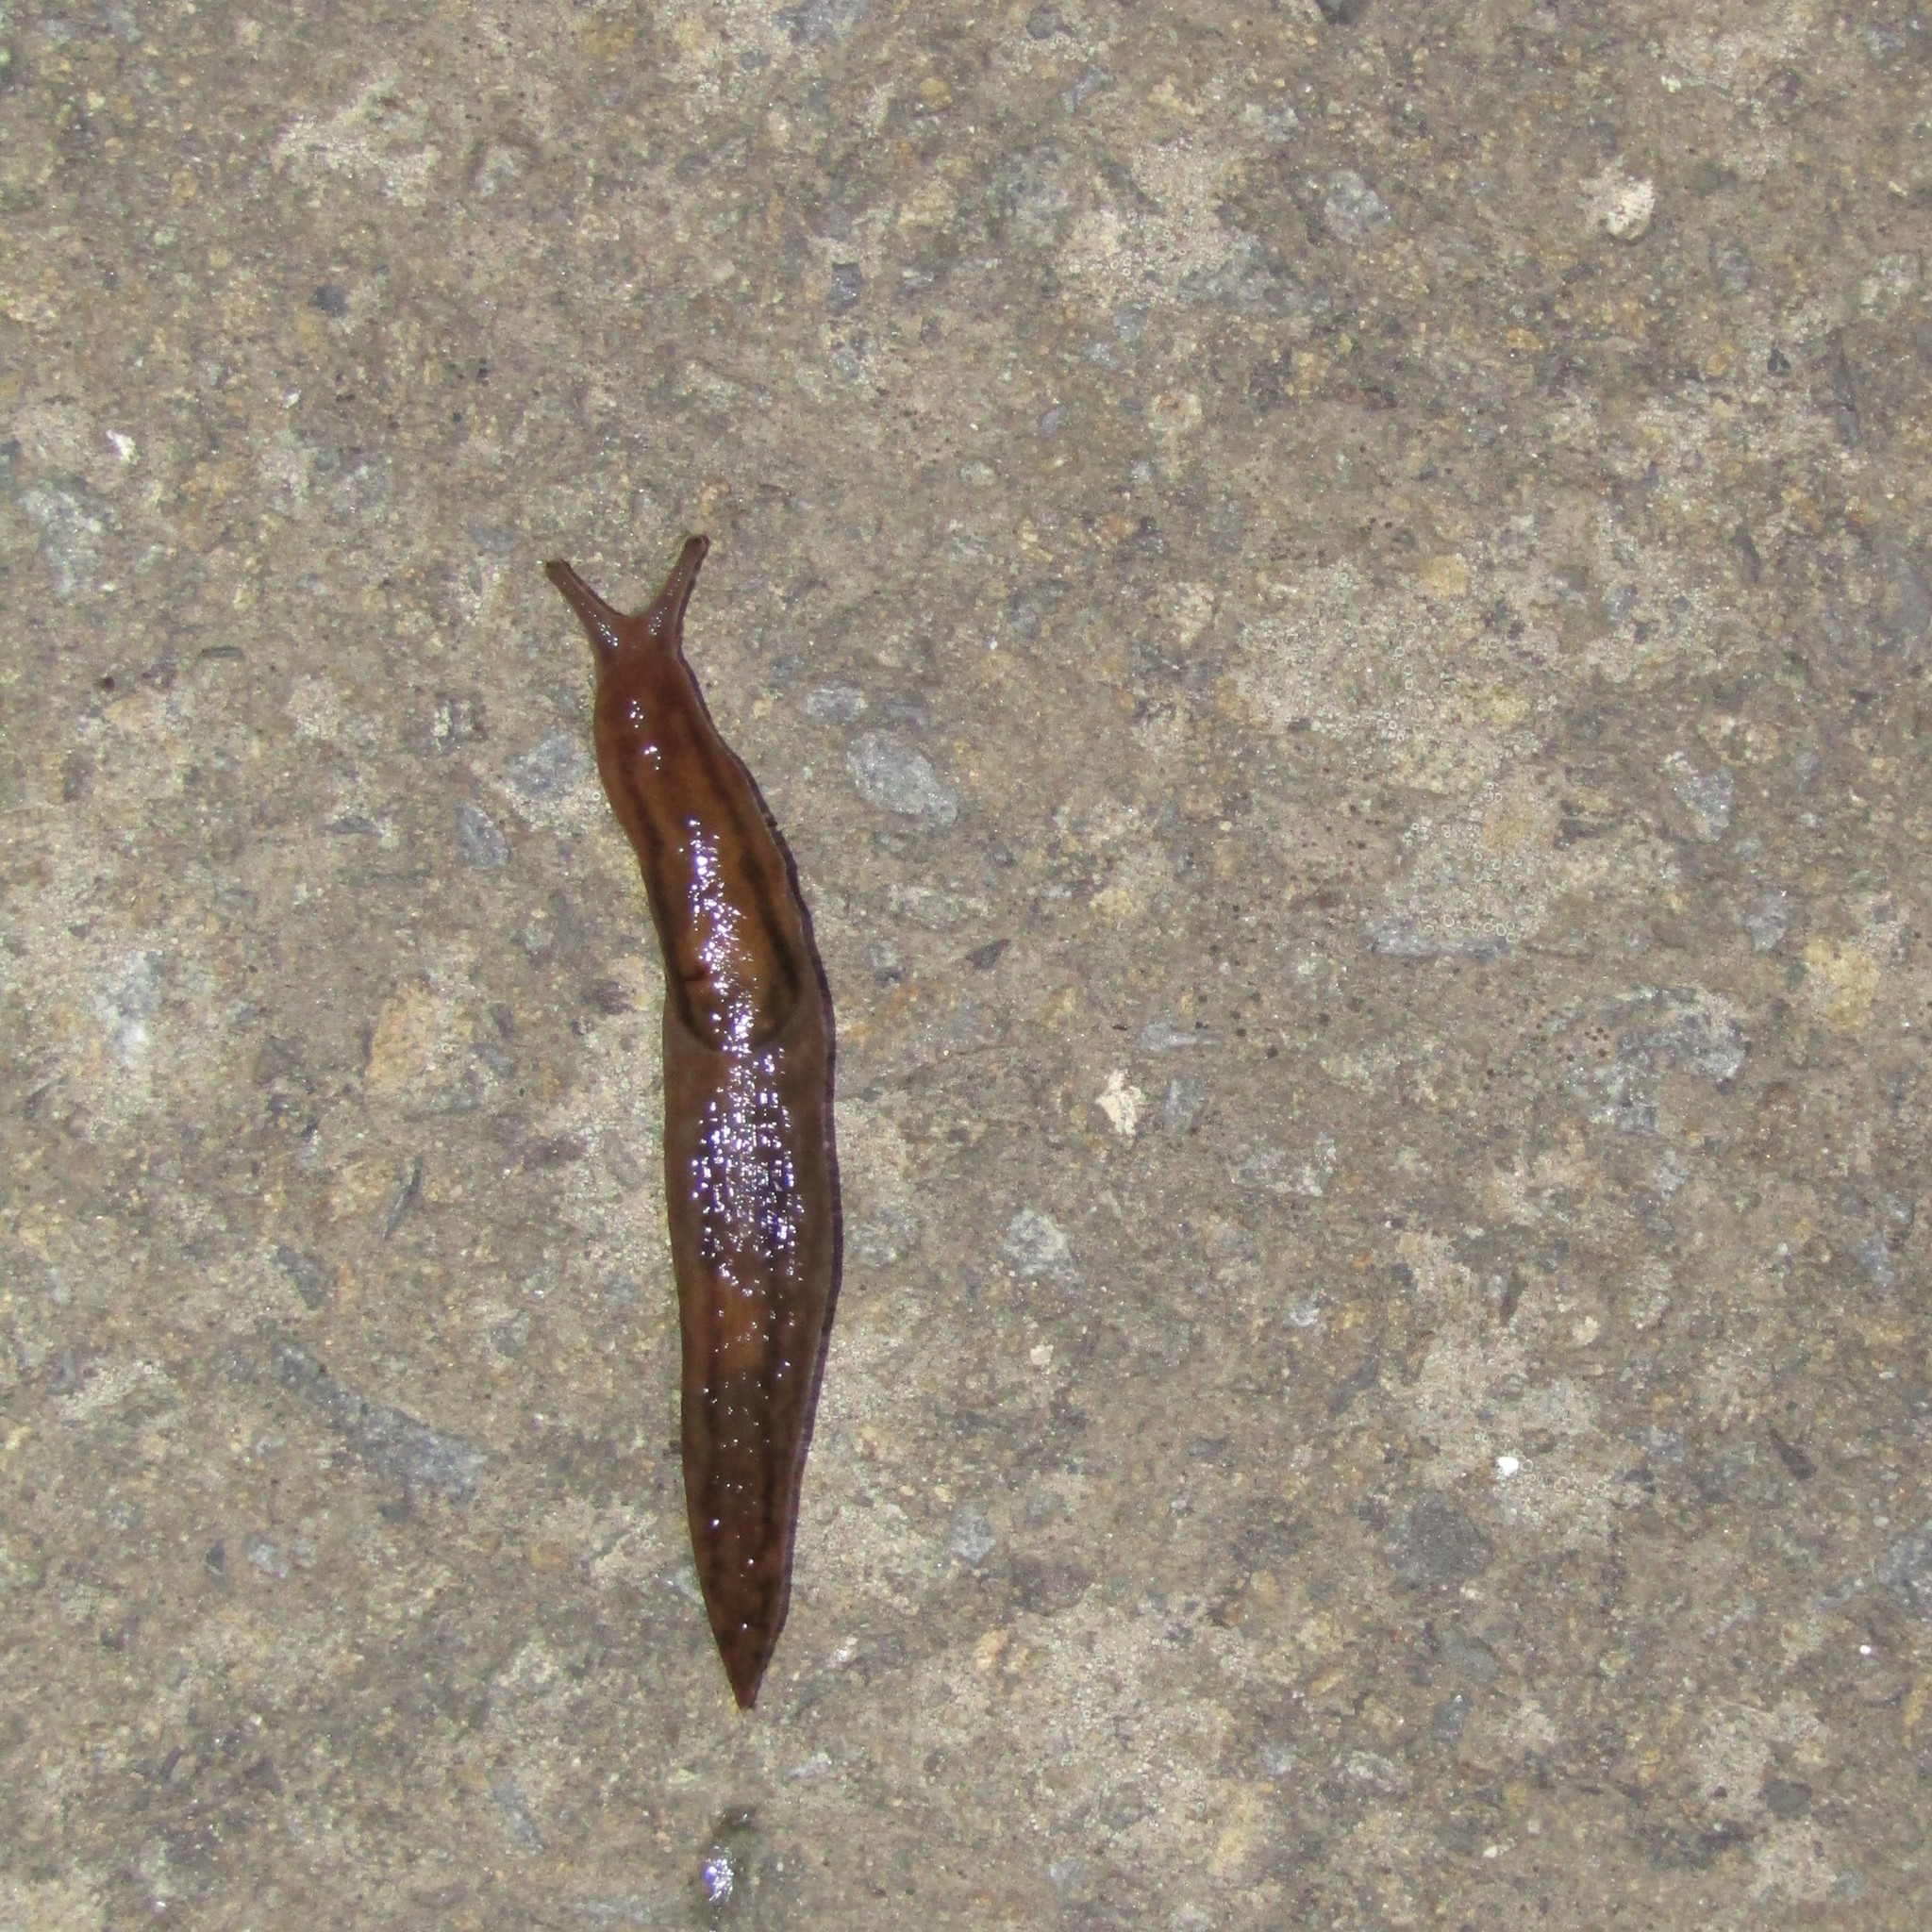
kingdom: Animalia
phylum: Mollusca
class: Gastropoda
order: Stylommatophora
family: Limacidae
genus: Ambigolimax
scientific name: Ambigolimax
